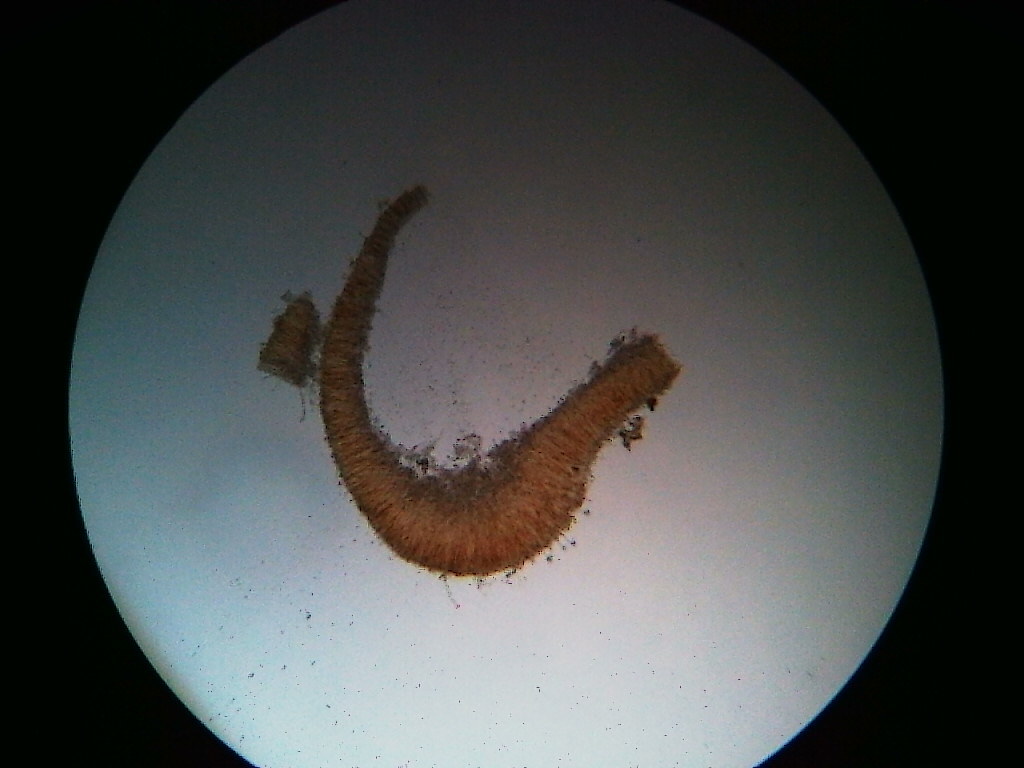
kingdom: Fungi
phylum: Basidiomycota
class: Agaricomycetes
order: Agaricales
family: Physalacriaceae
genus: Cylindrobasidium
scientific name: Cylindrobasidium laeve
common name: Tear dropper
